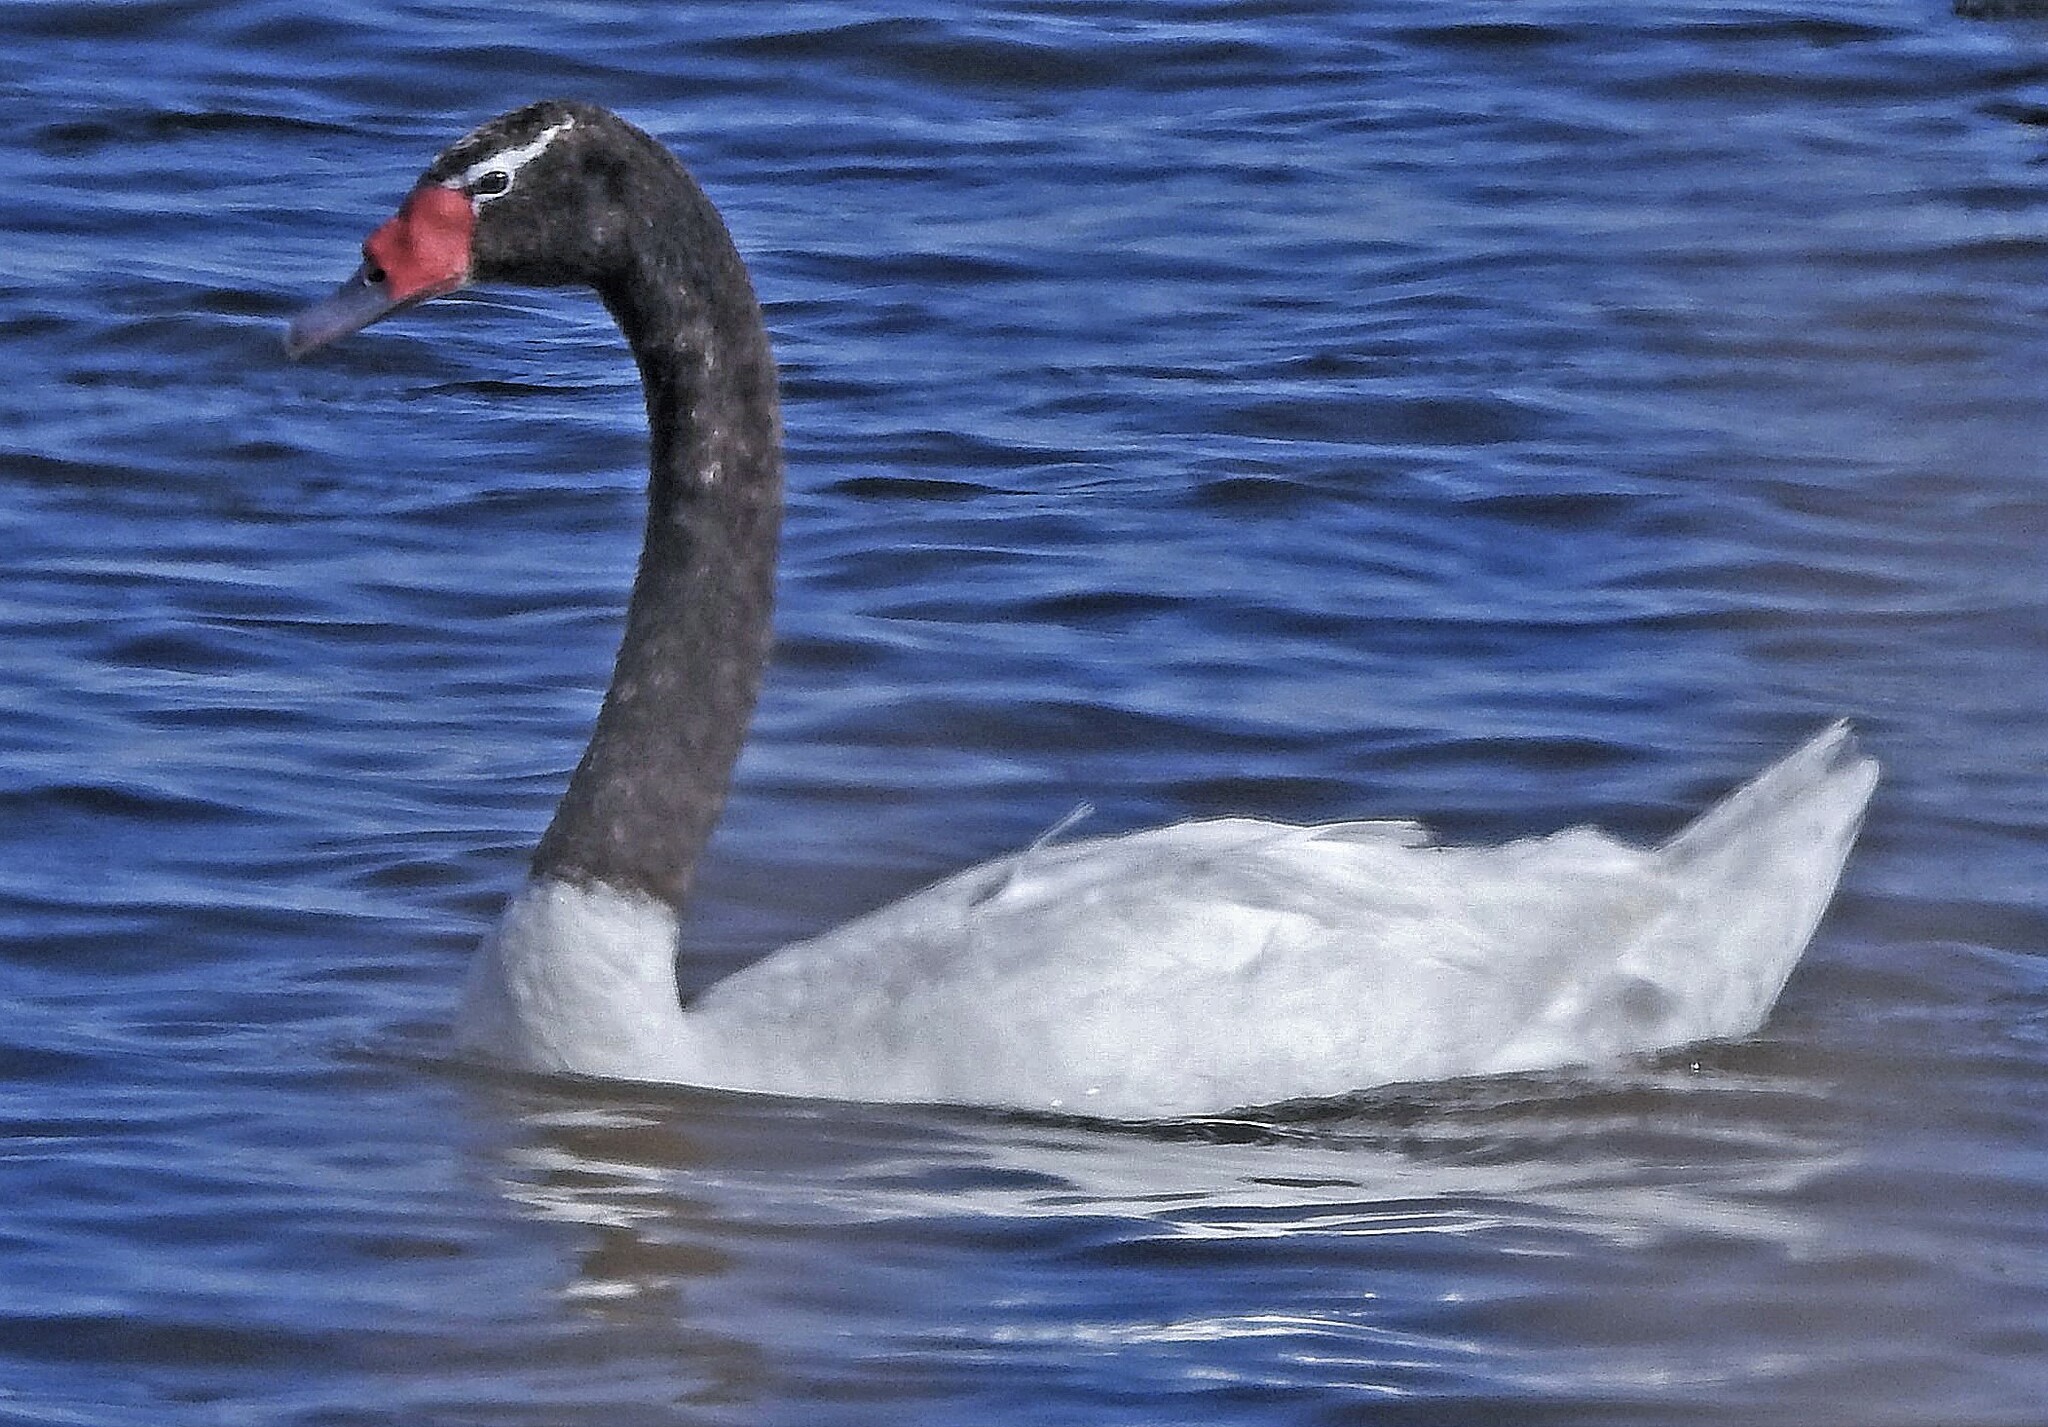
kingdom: Animalia
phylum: Chordata
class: Aves
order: Anseriformes
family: Anatidae
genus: Cygnus
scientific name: Cygnus melancoryphus
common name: Black-necked swan
